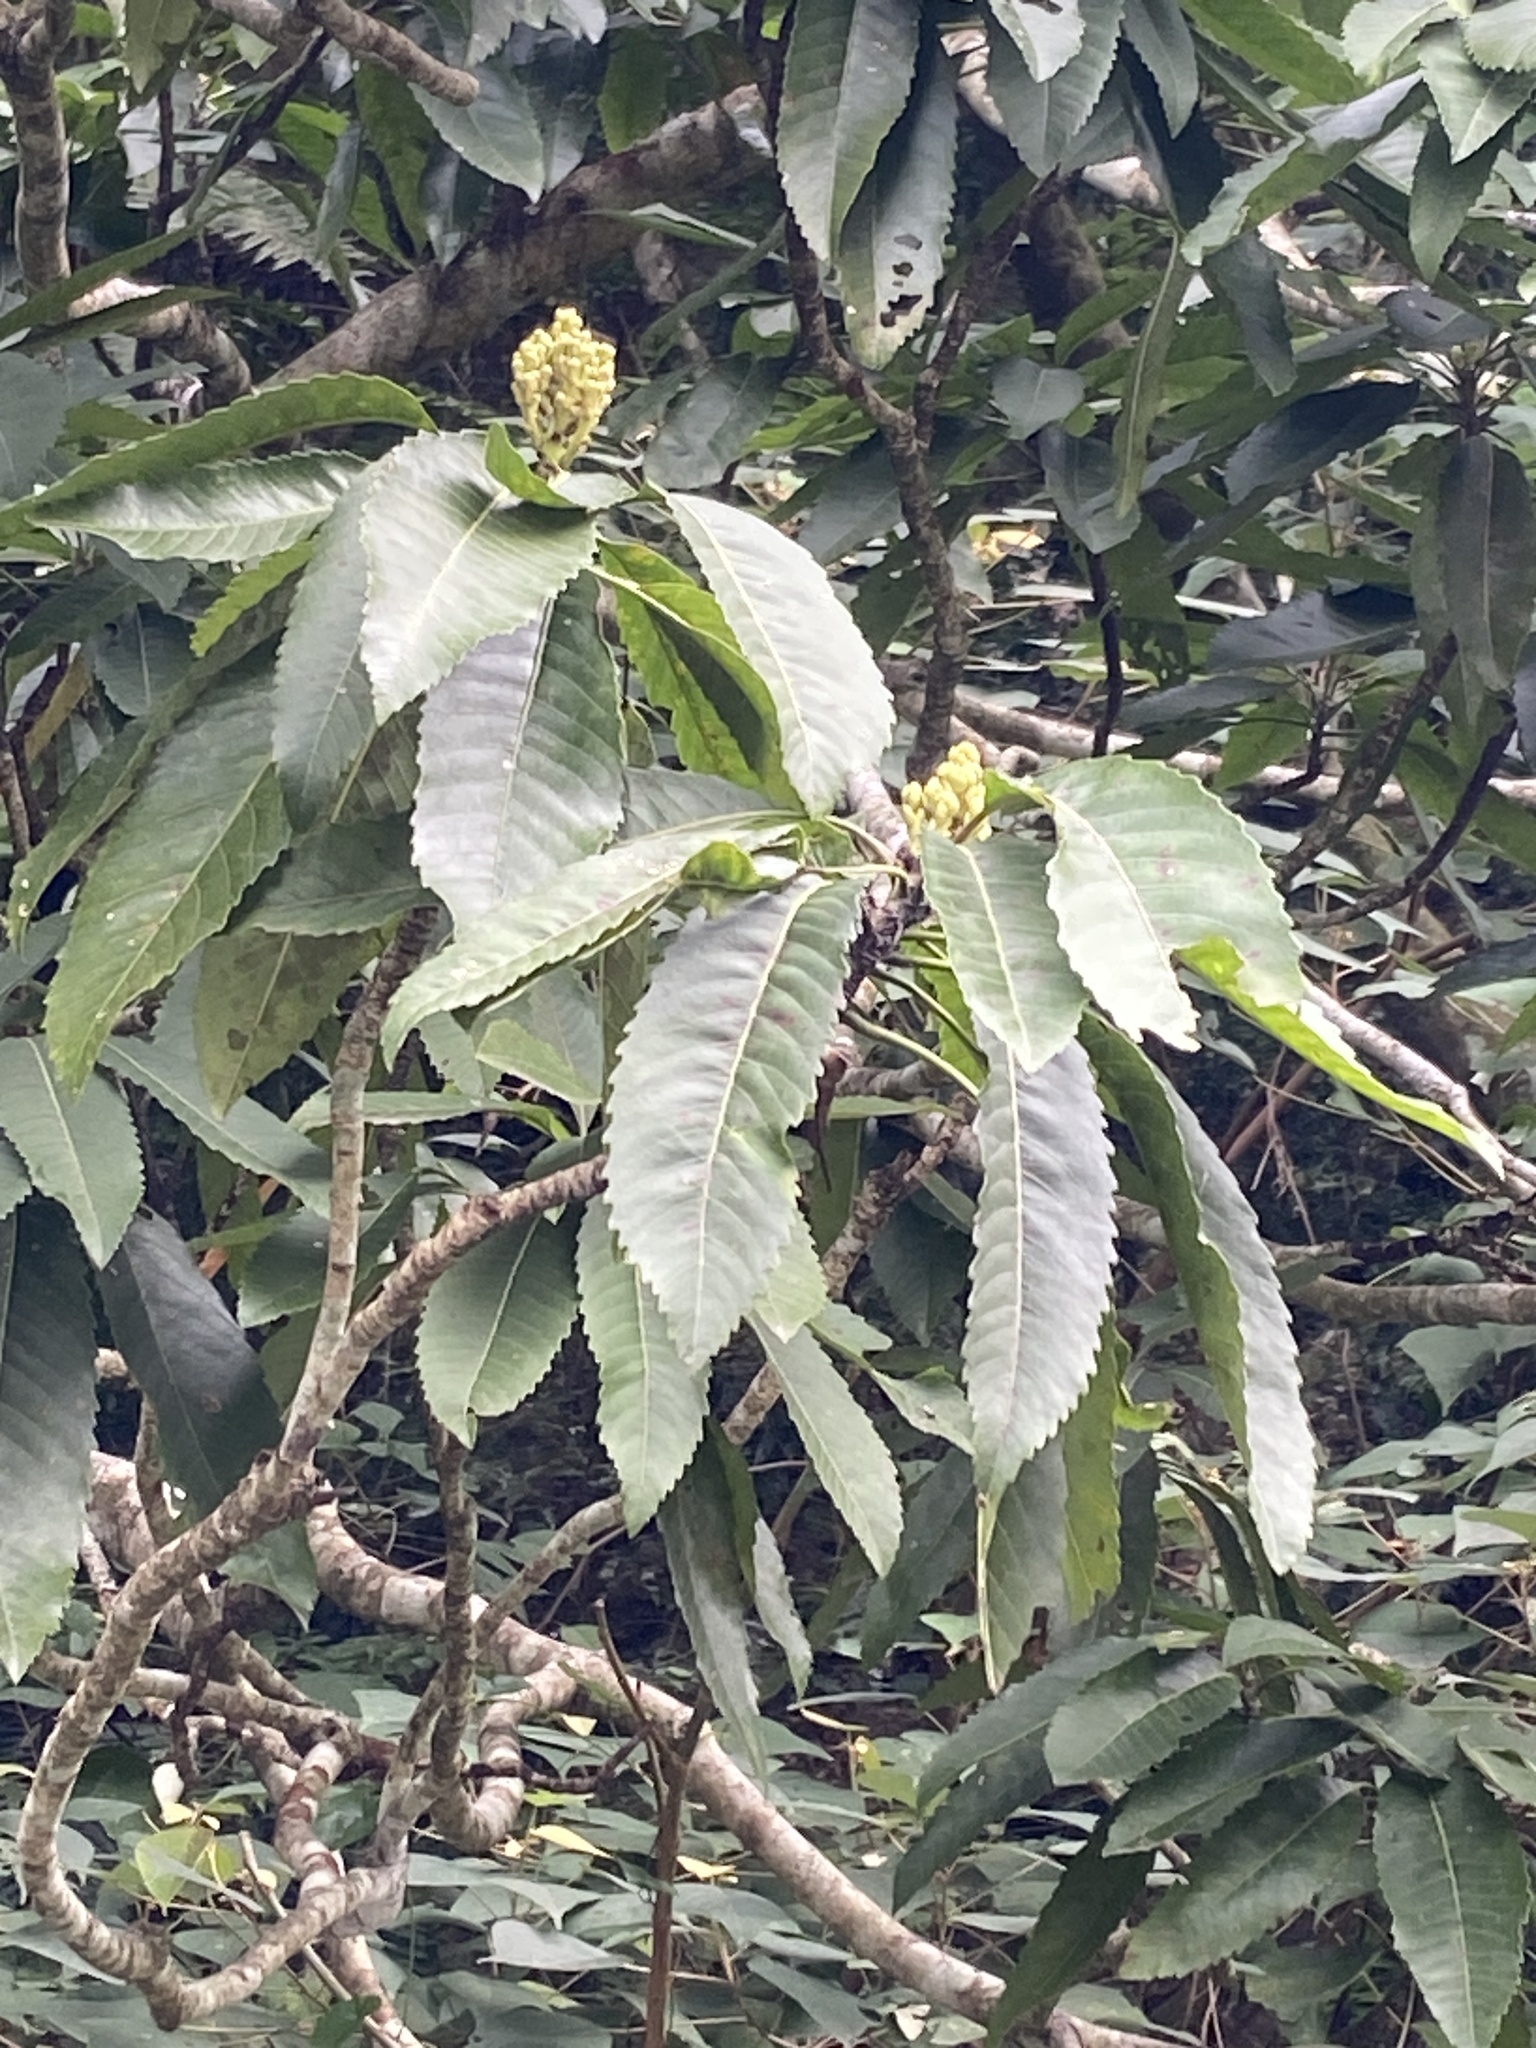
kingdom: Plantae
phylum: Tracheophyta
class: Magnoliopsida
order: Rosales
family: Rosaceae
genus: Rhaphiolepis
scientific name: Rhaphiolepis deflexa
